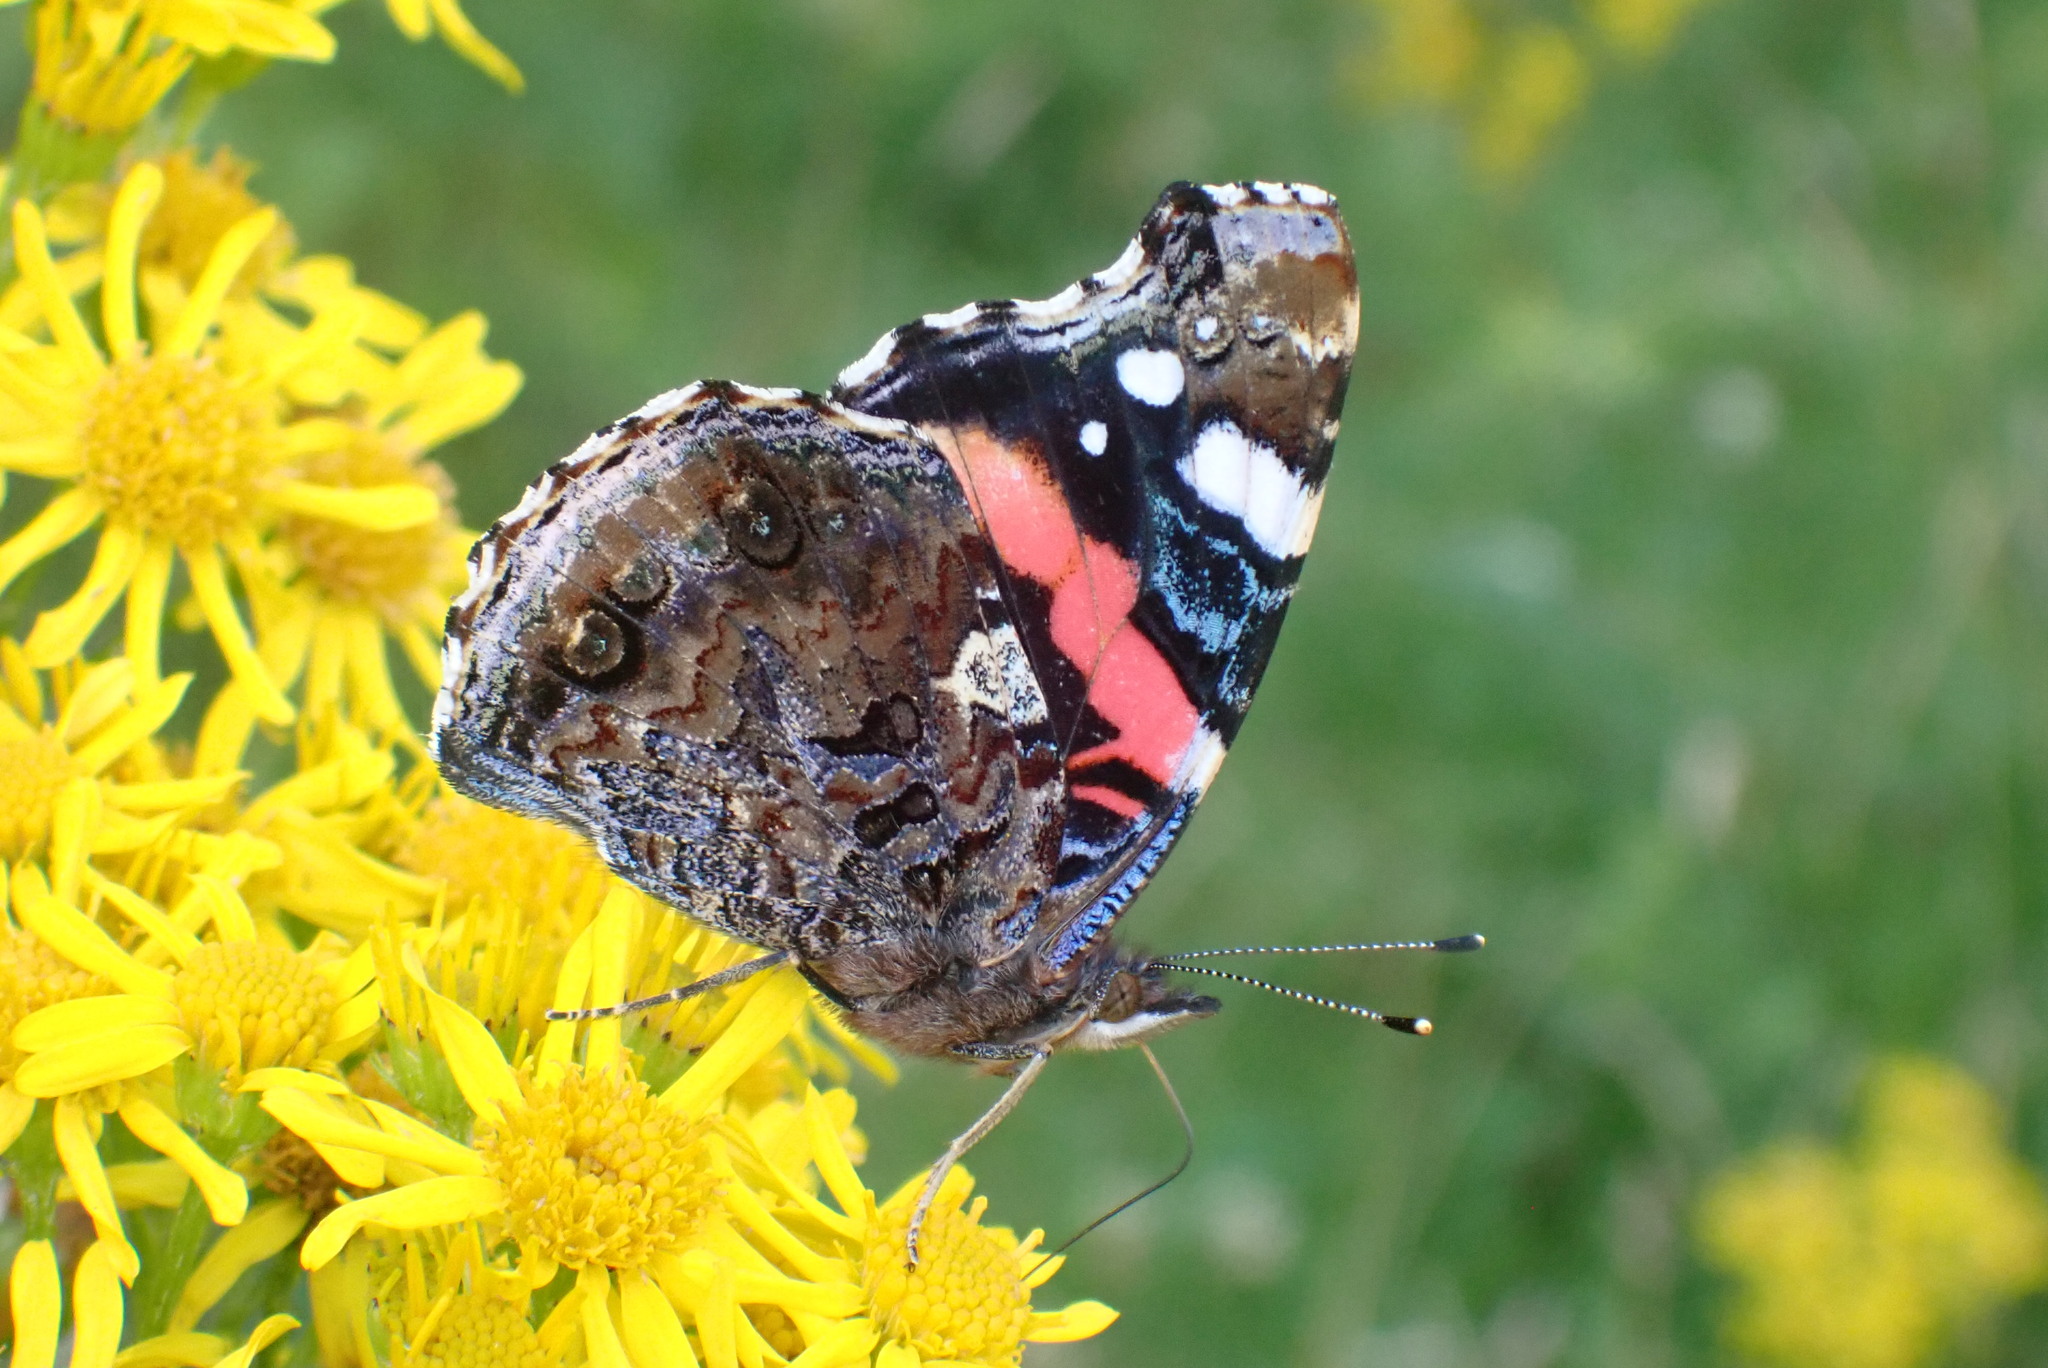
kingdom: Animalia
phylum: Arthropoda
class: Insecta
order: Lepidoptera
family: Nymphalidae
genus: Vanessa
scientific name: Vanessa atalanta
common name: Red admiral
